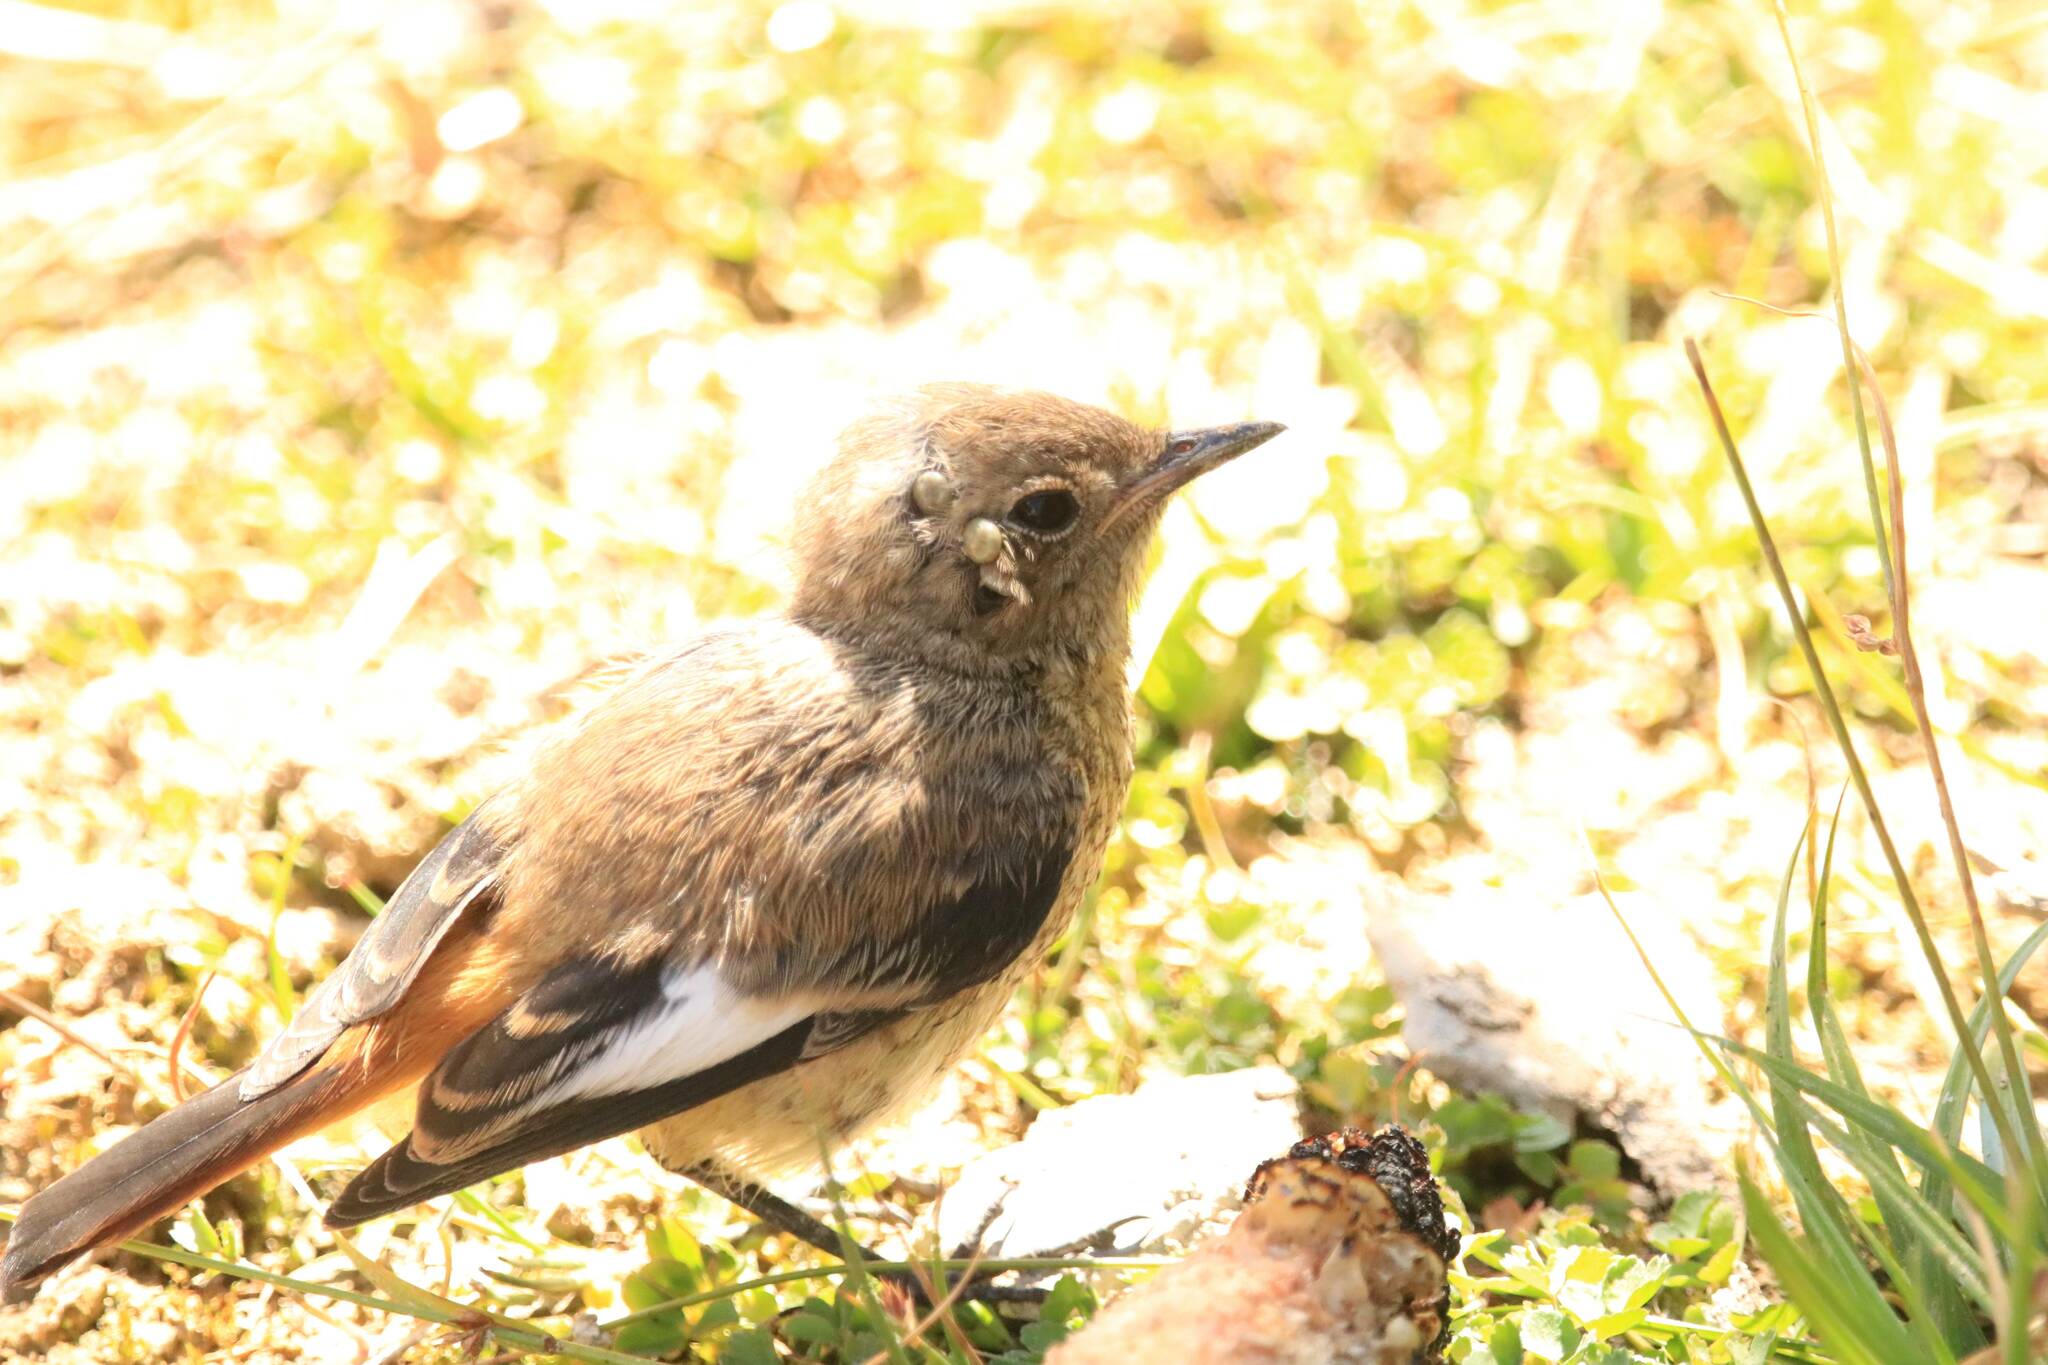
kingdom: Animalia
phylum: Chordata
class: Aves
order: Passeriformes
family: Muscicapidae
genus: Phoenicurus
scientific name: Phoenicurus moussieri
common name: Moussier's redstart
